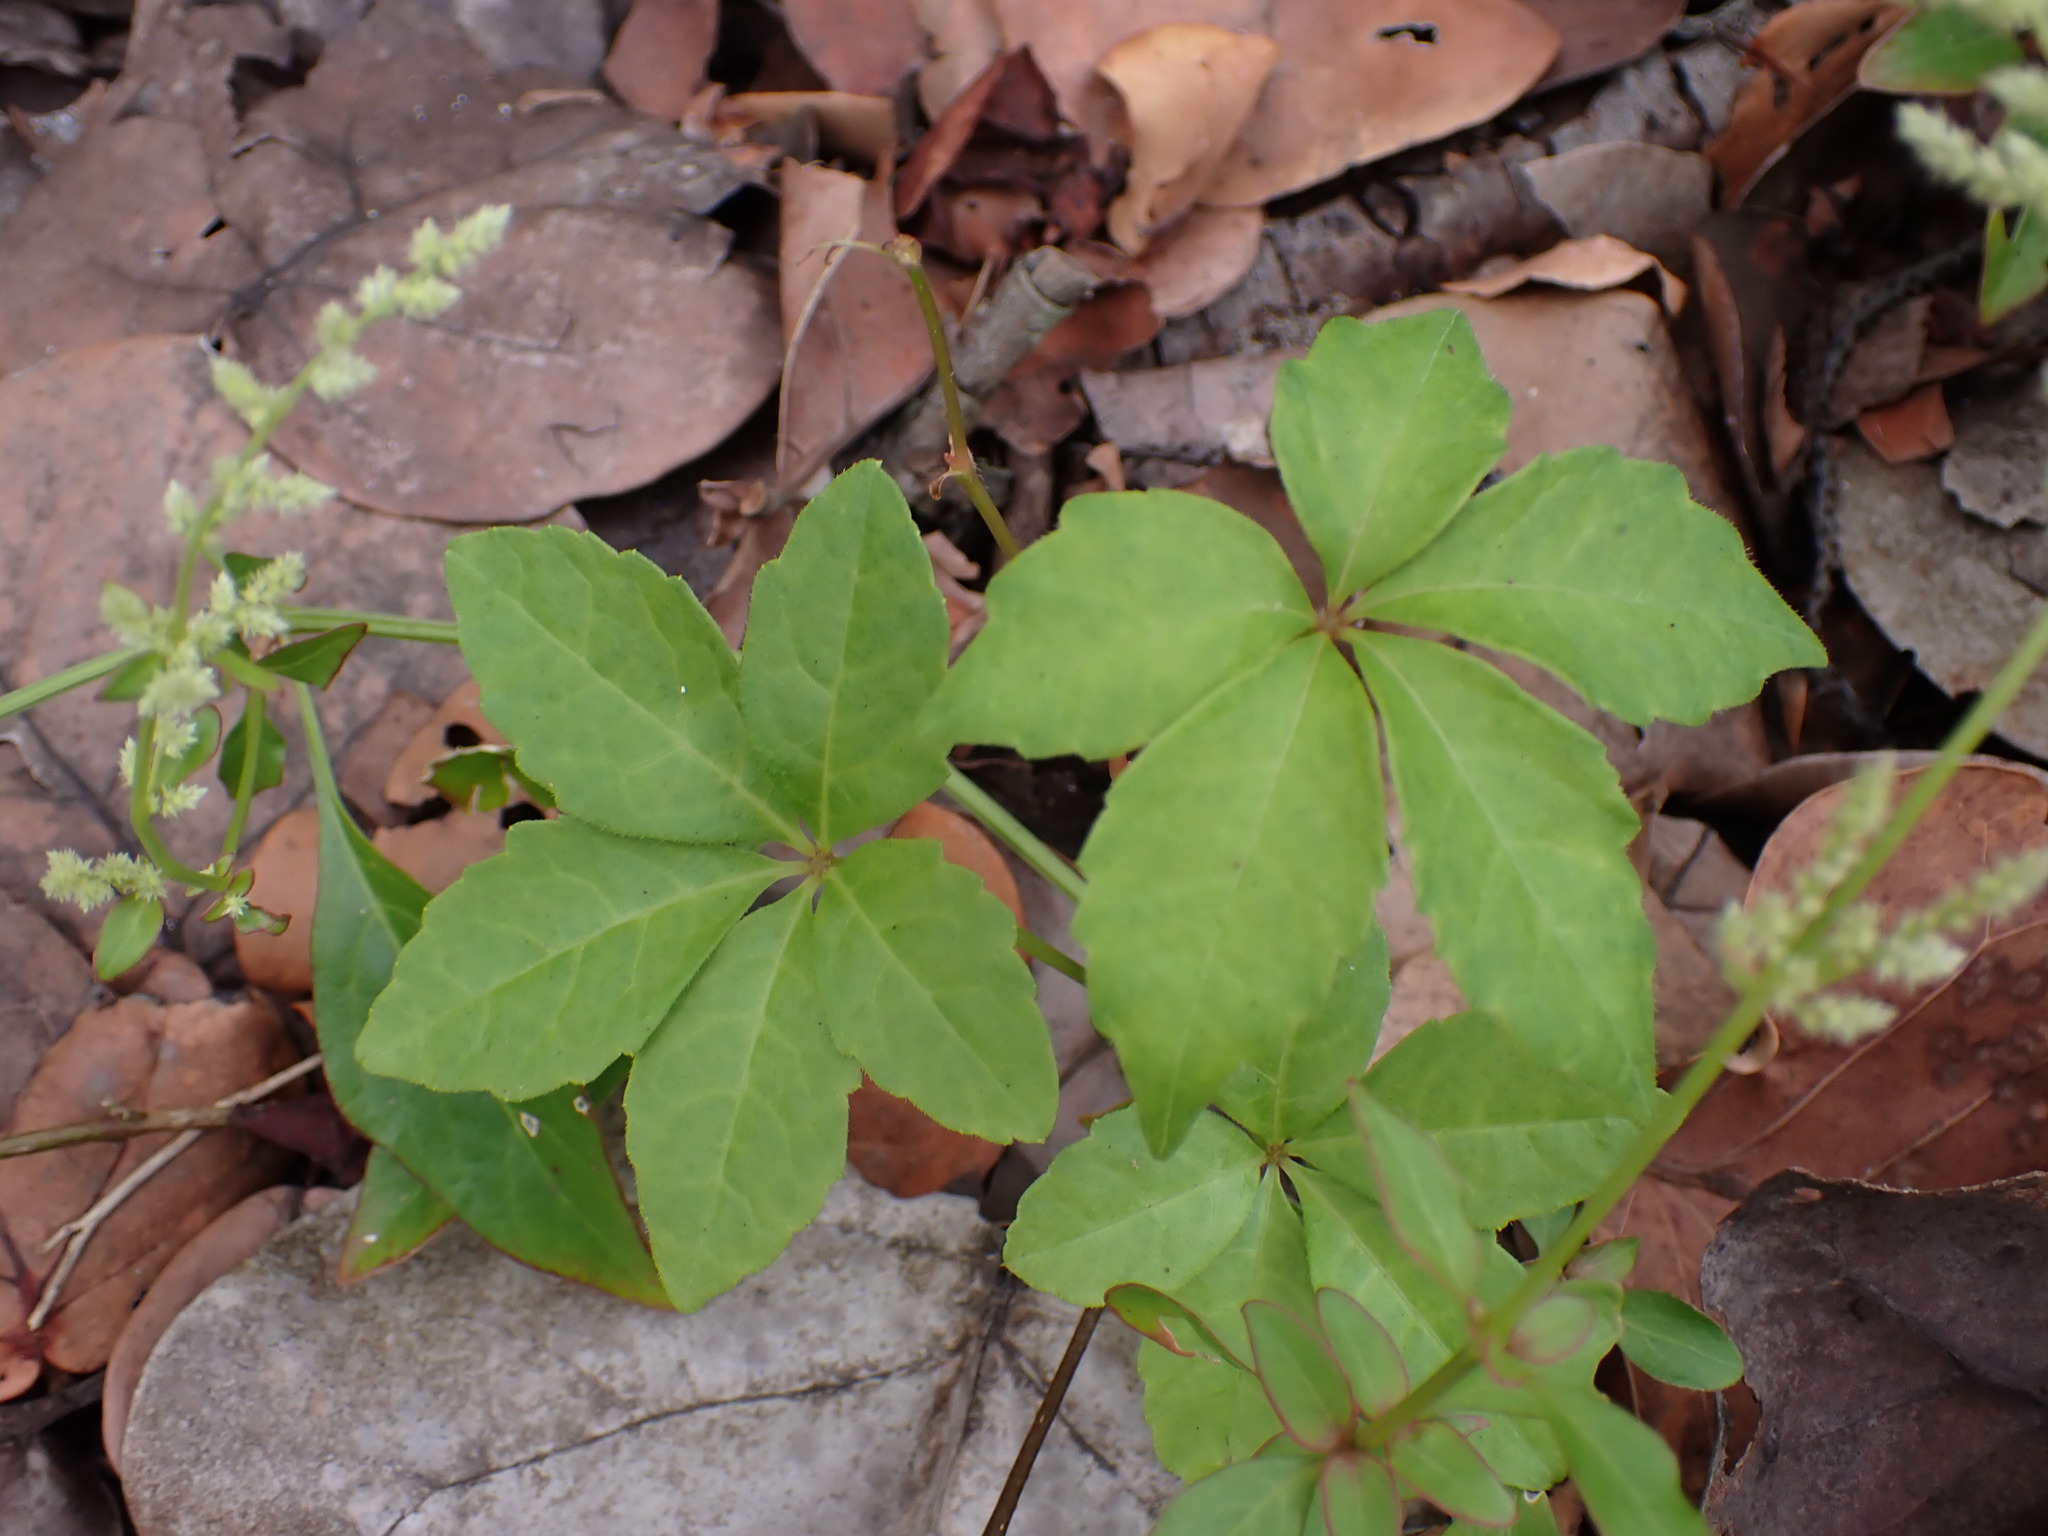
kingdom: Plantae
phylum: Tracheophyta
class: Magnoliopsida
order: Vitales
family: Vitaceae
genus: Parthenocissus
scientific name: Parthenocissus quinquefolia
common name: Virginia-creeper
